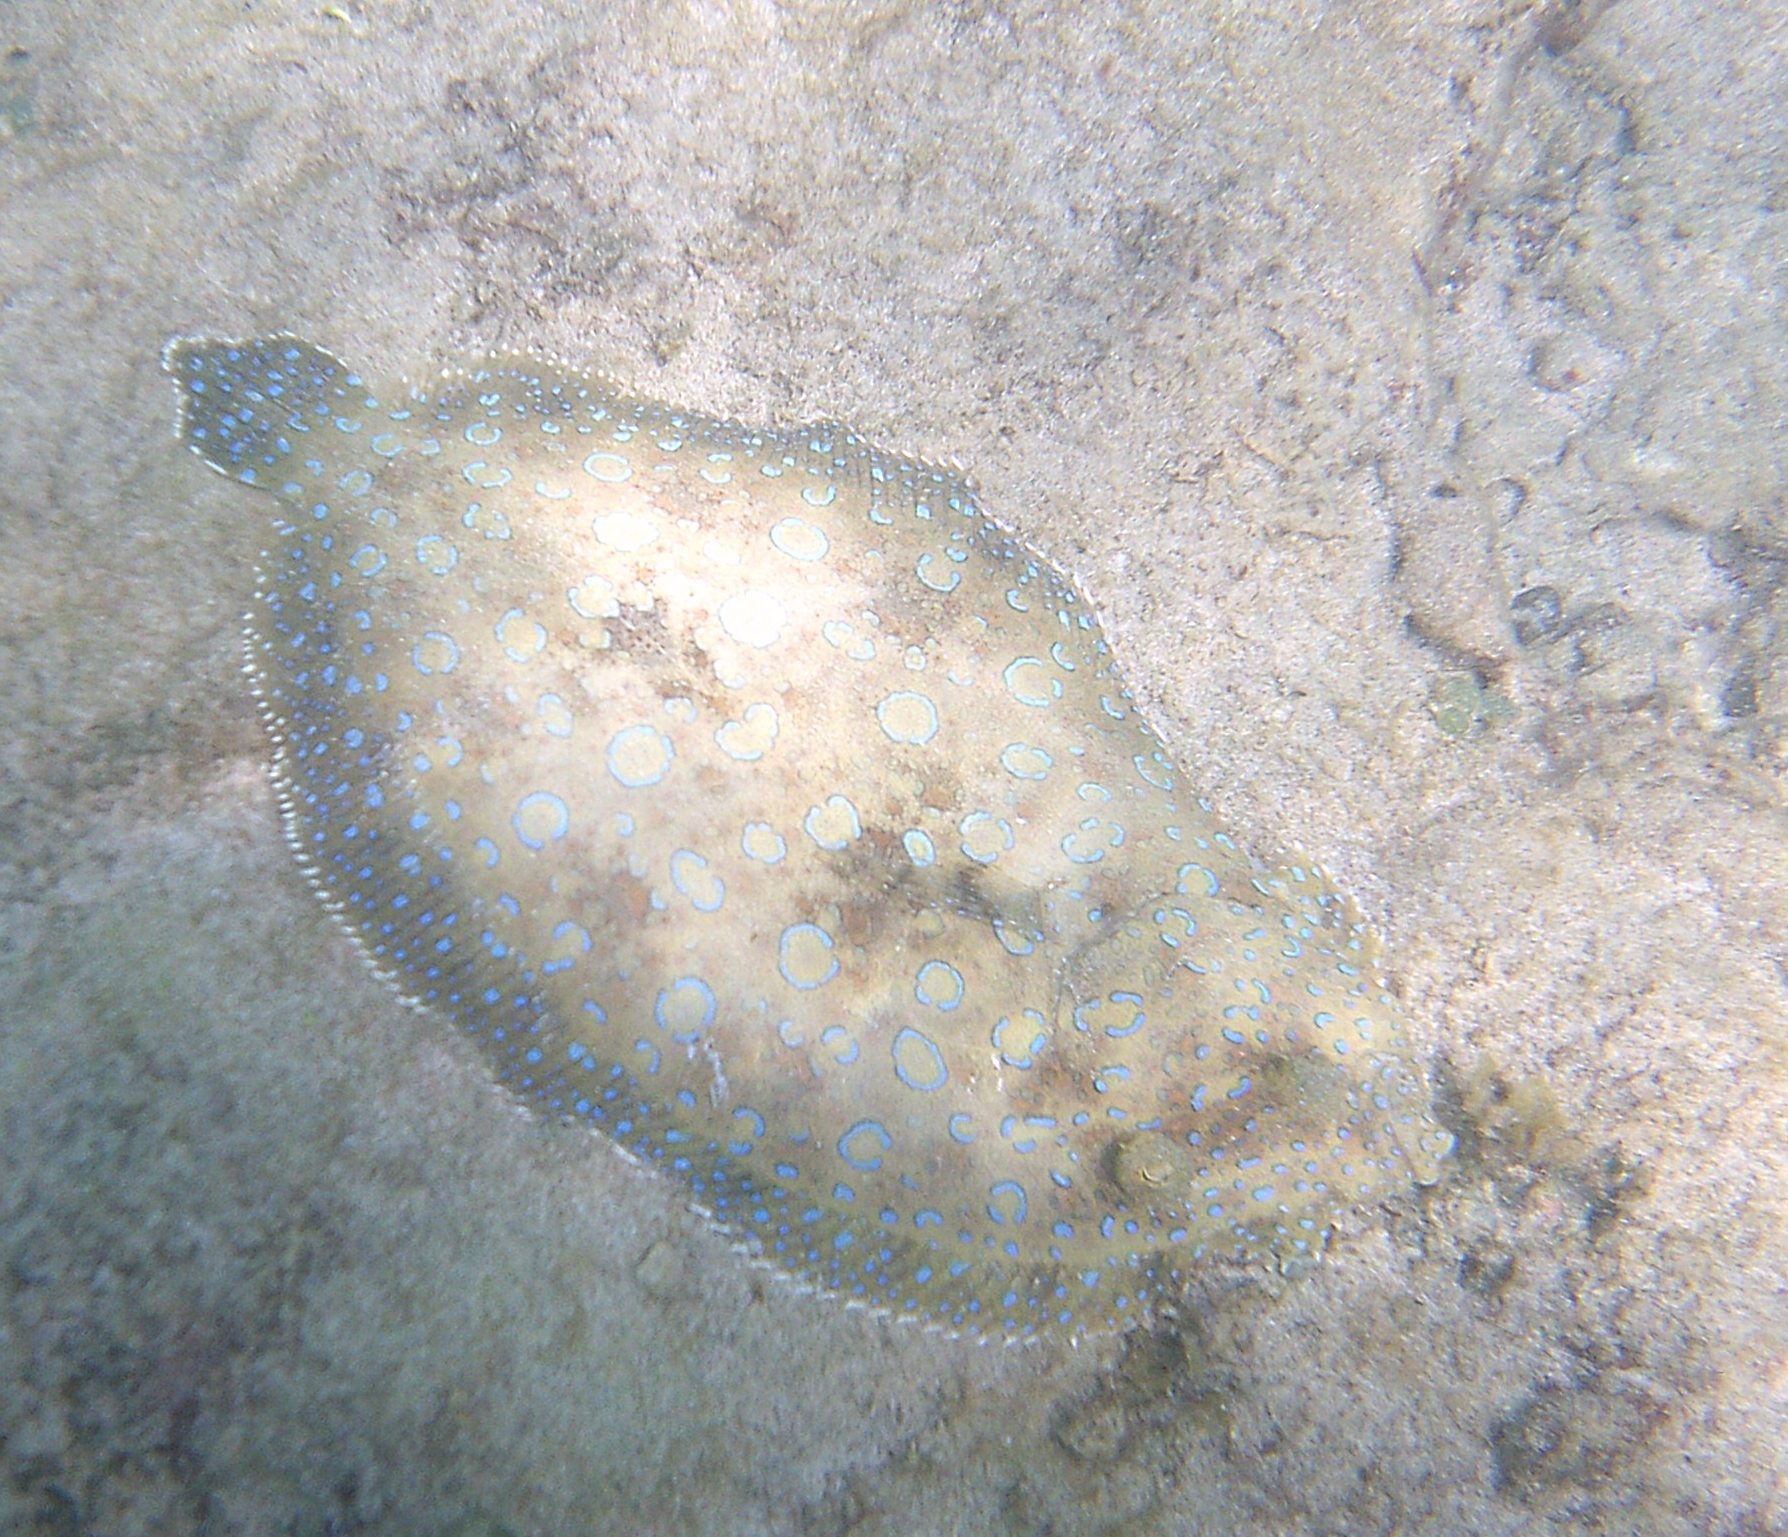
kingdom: Animalia
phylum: Chordata
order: Pleuronectiformes
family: Bothidae
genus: Bothus
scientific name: Bothus lunatus
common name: Peacock flounder
